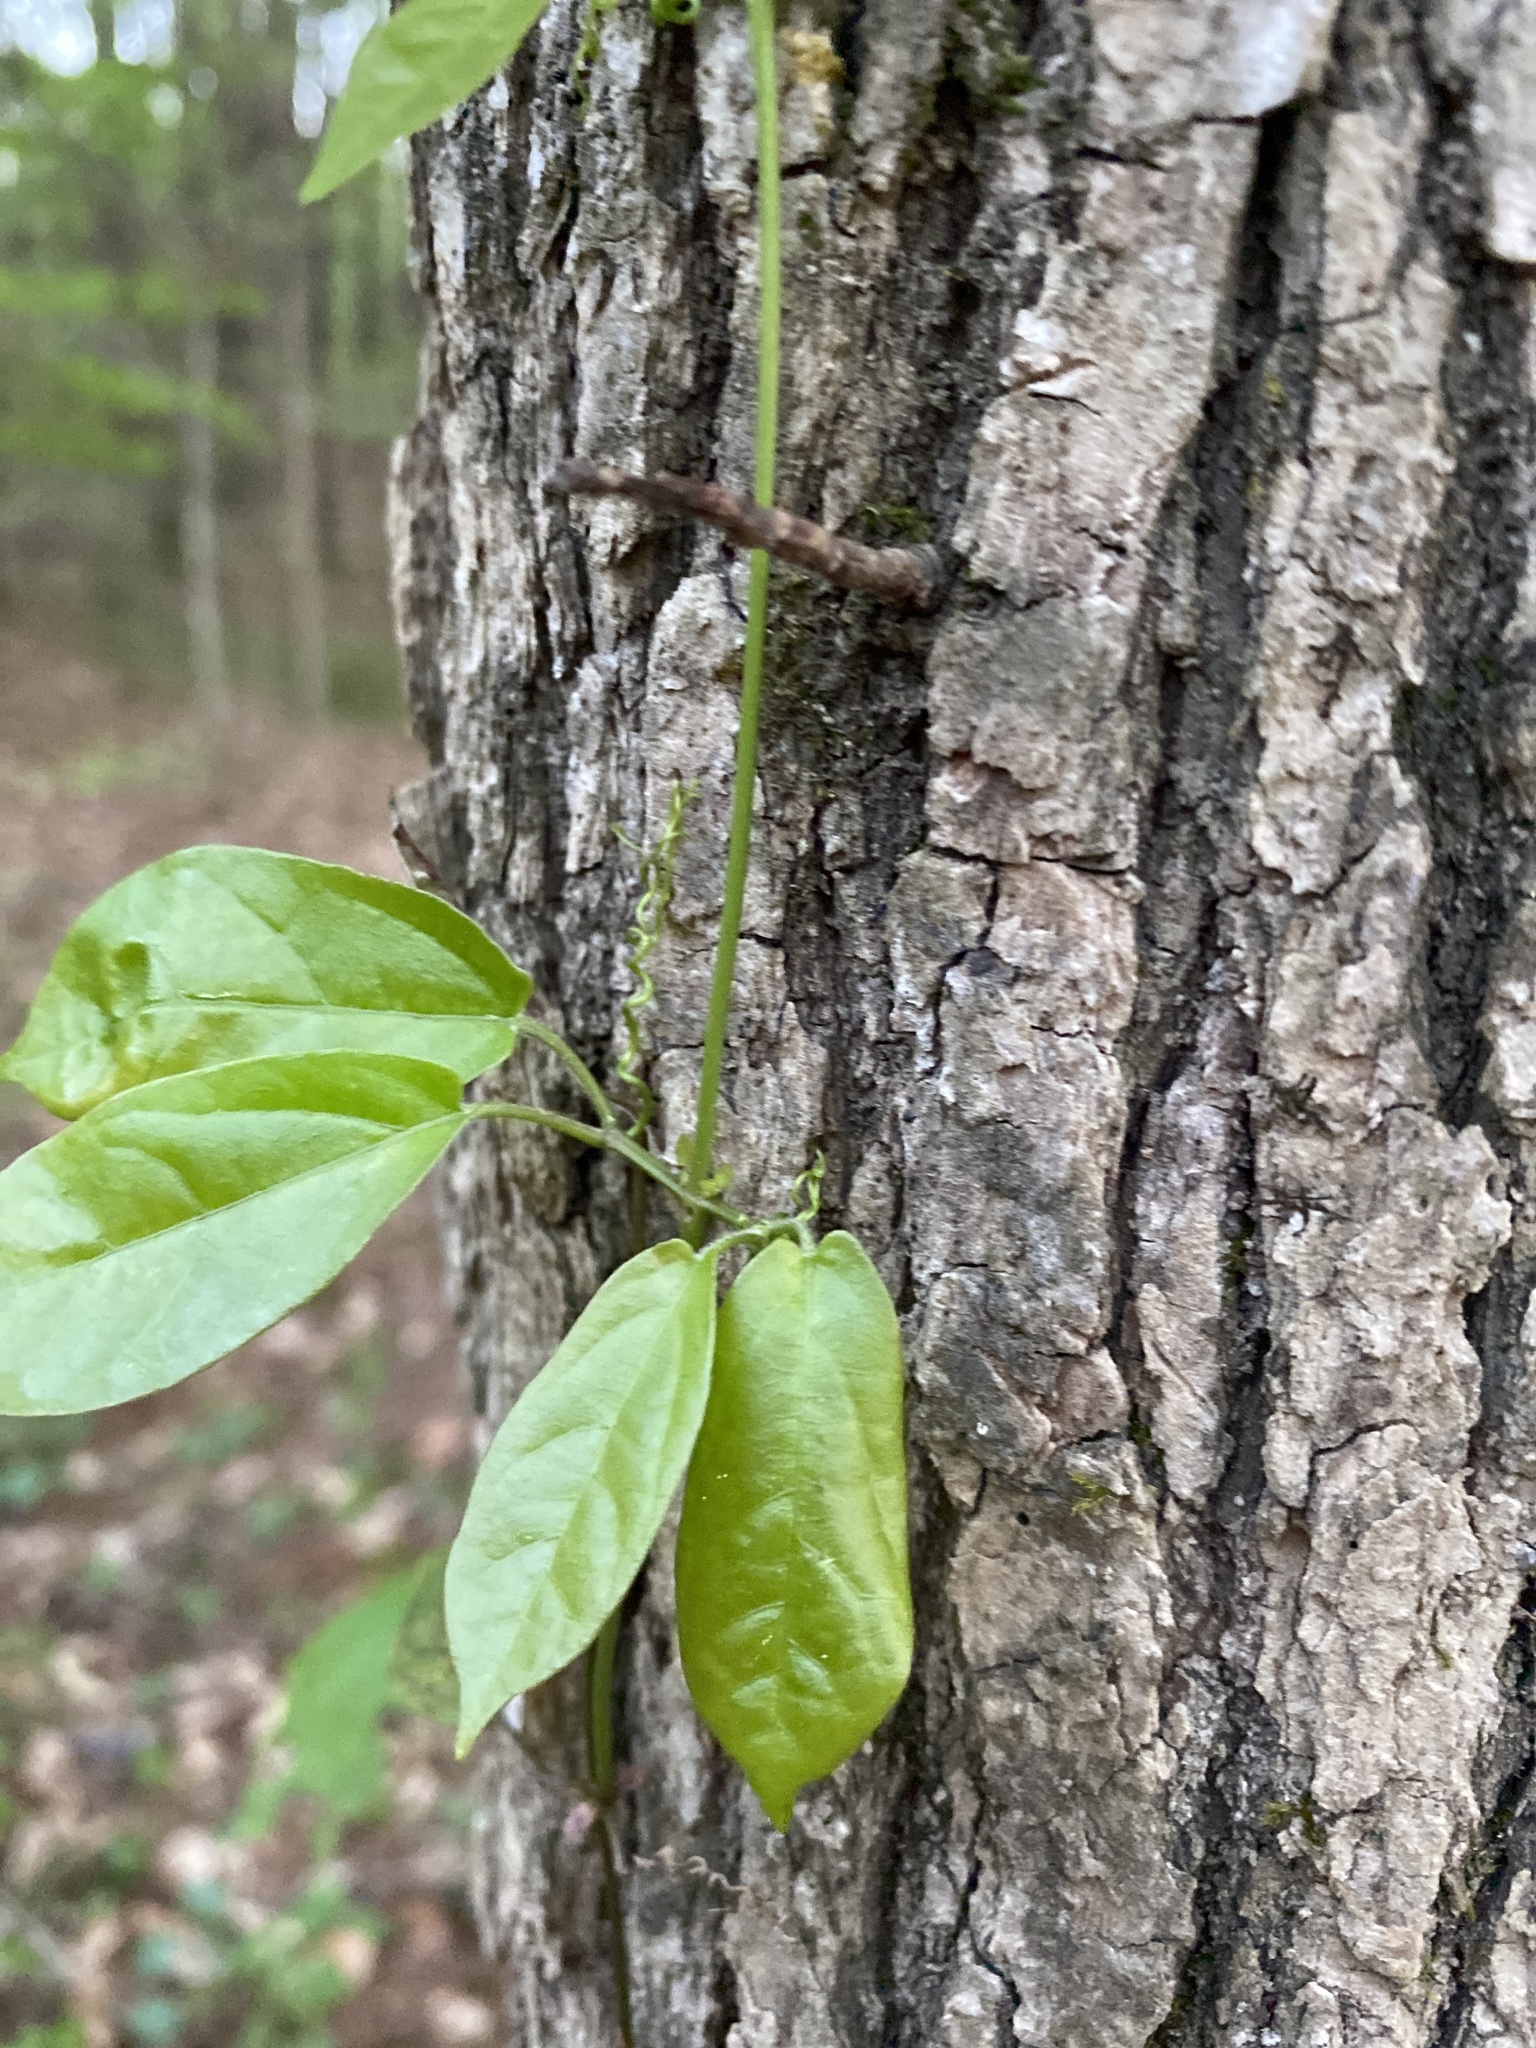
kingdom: Plantae
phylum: Tracheophyta
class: Magnoliopsida
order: Lamiales
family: Bignoniaceae
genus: Bignonia
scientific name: Bignonia capreolata
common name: Crossvine
